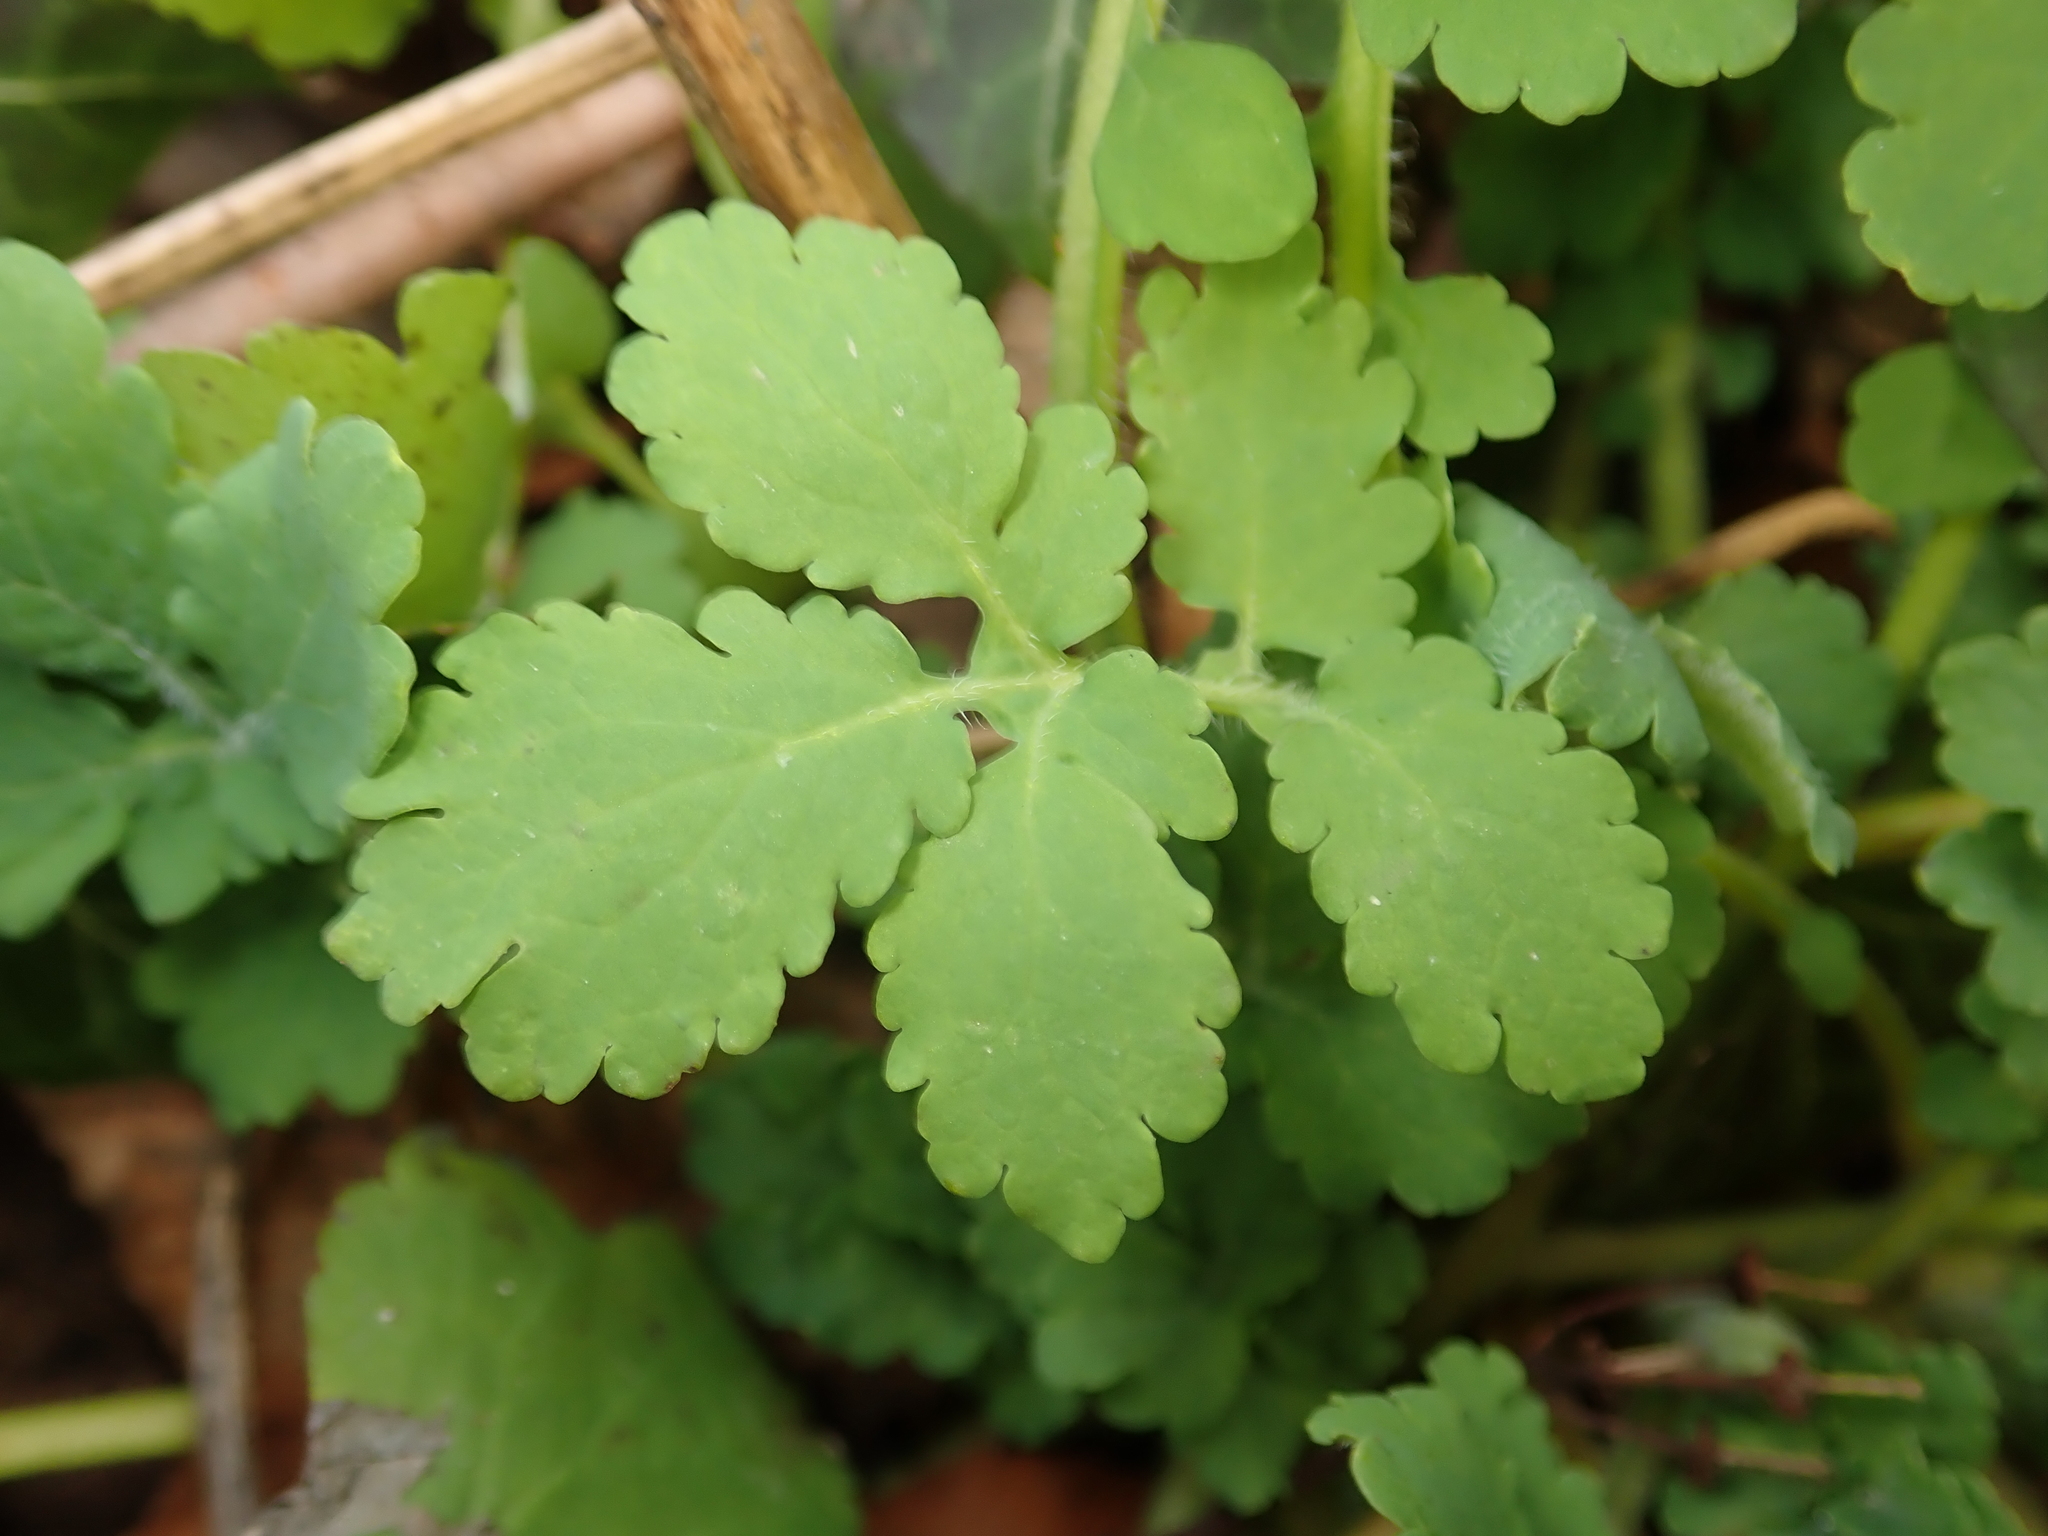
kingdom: Plantae
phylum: Tracheophyta
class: Magnoliopsida
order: Ranunculales
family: Papaveraceae
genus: Chelidonium
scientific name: Chelidonium majus
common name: Greater celandine
